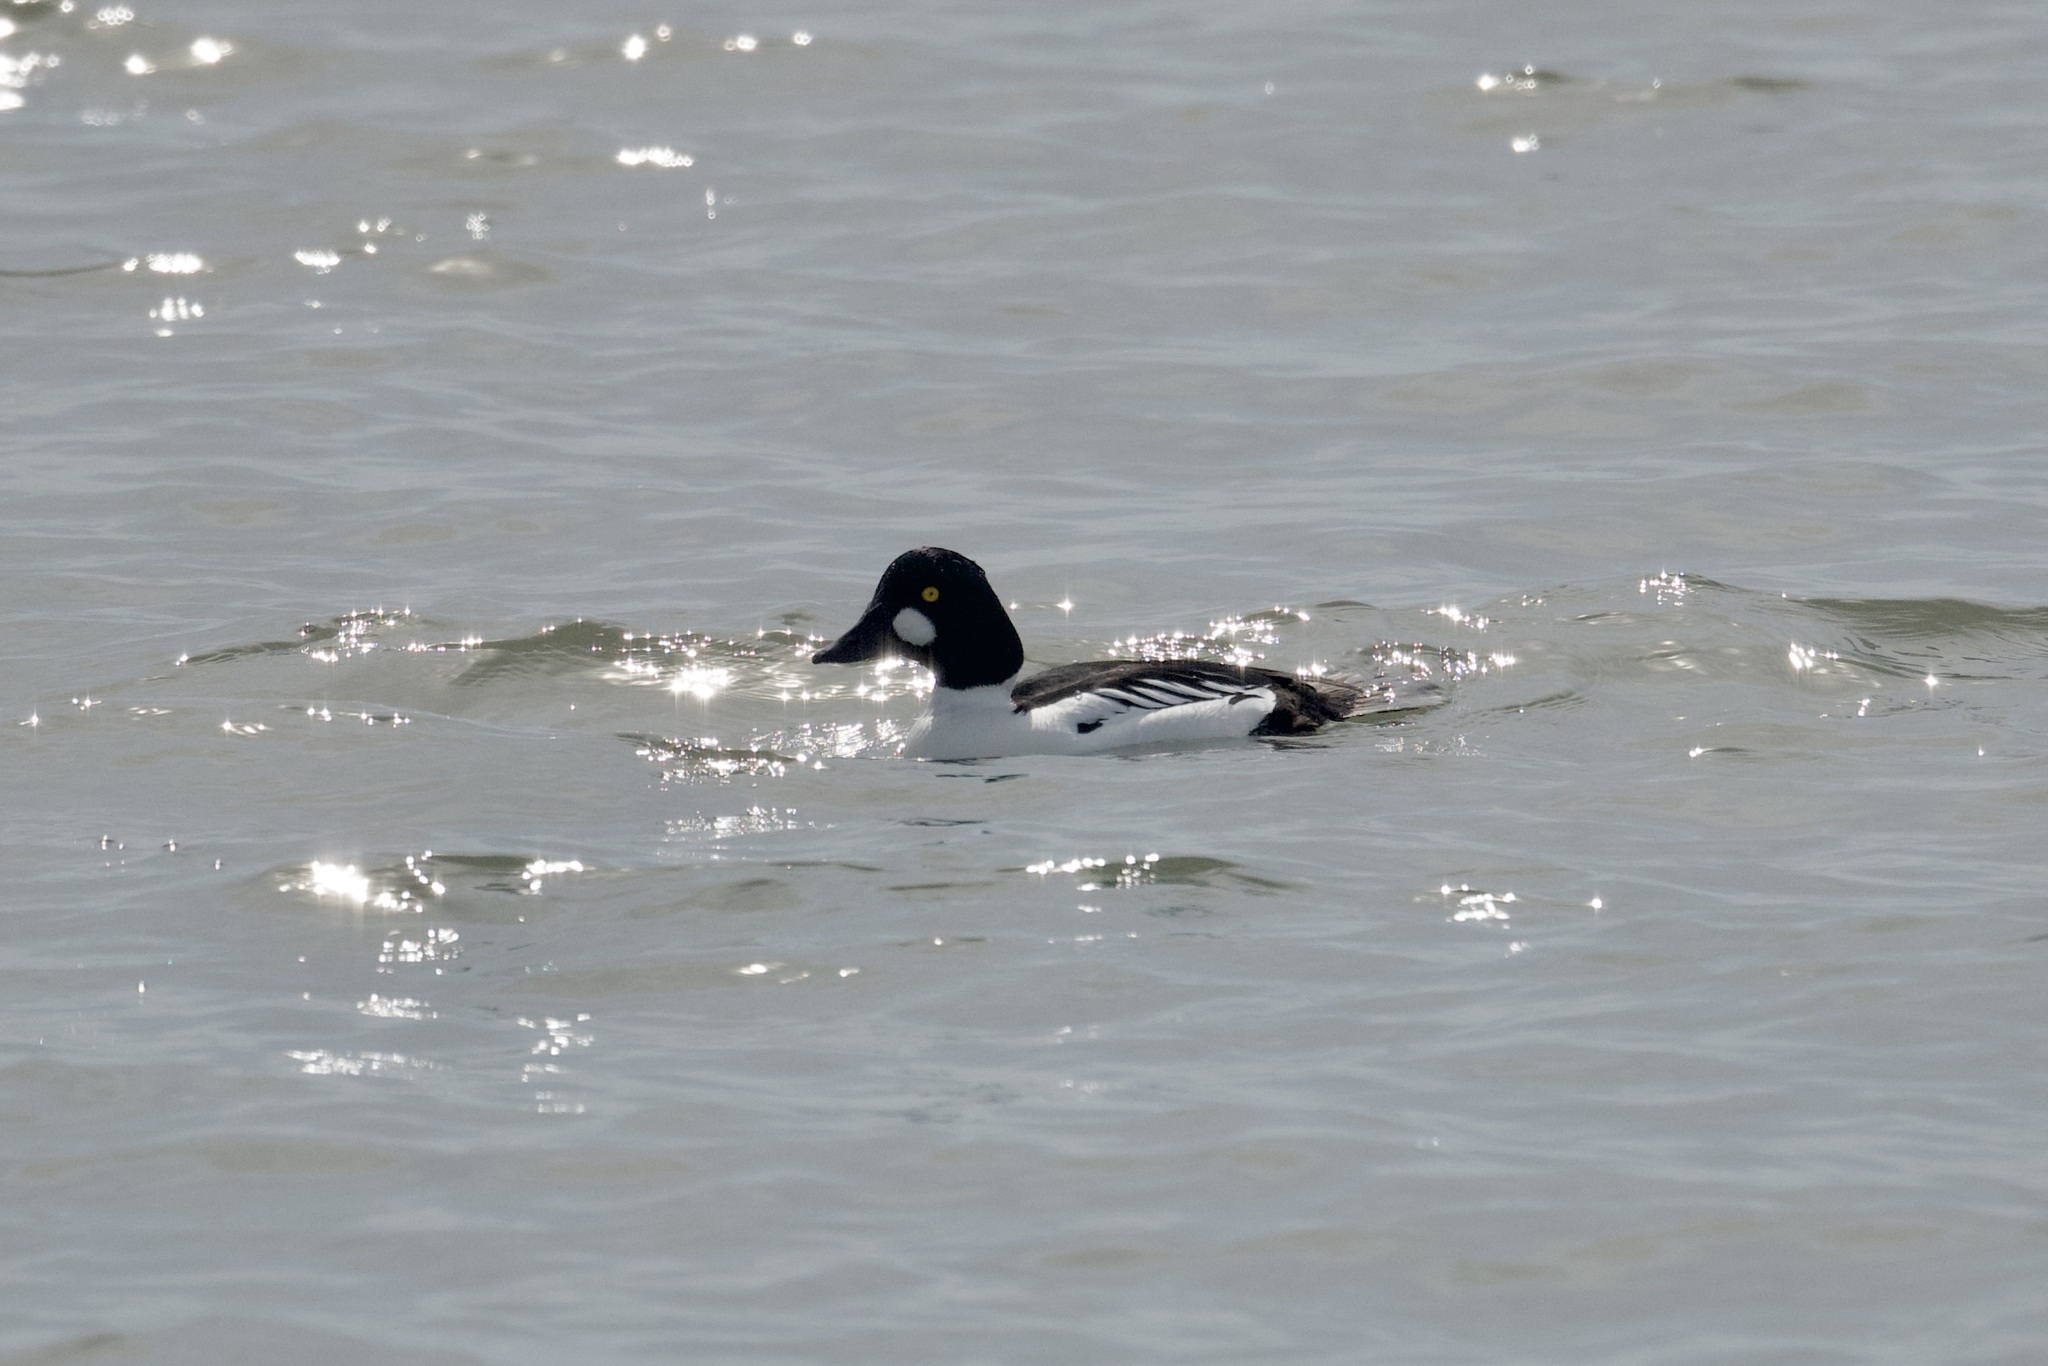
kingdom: Animalia
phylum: Chordata
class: Aves
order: Anseriformes
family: Anatidae
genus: Bucephala
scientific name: Bucephala clangula
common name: Common goldeneye
